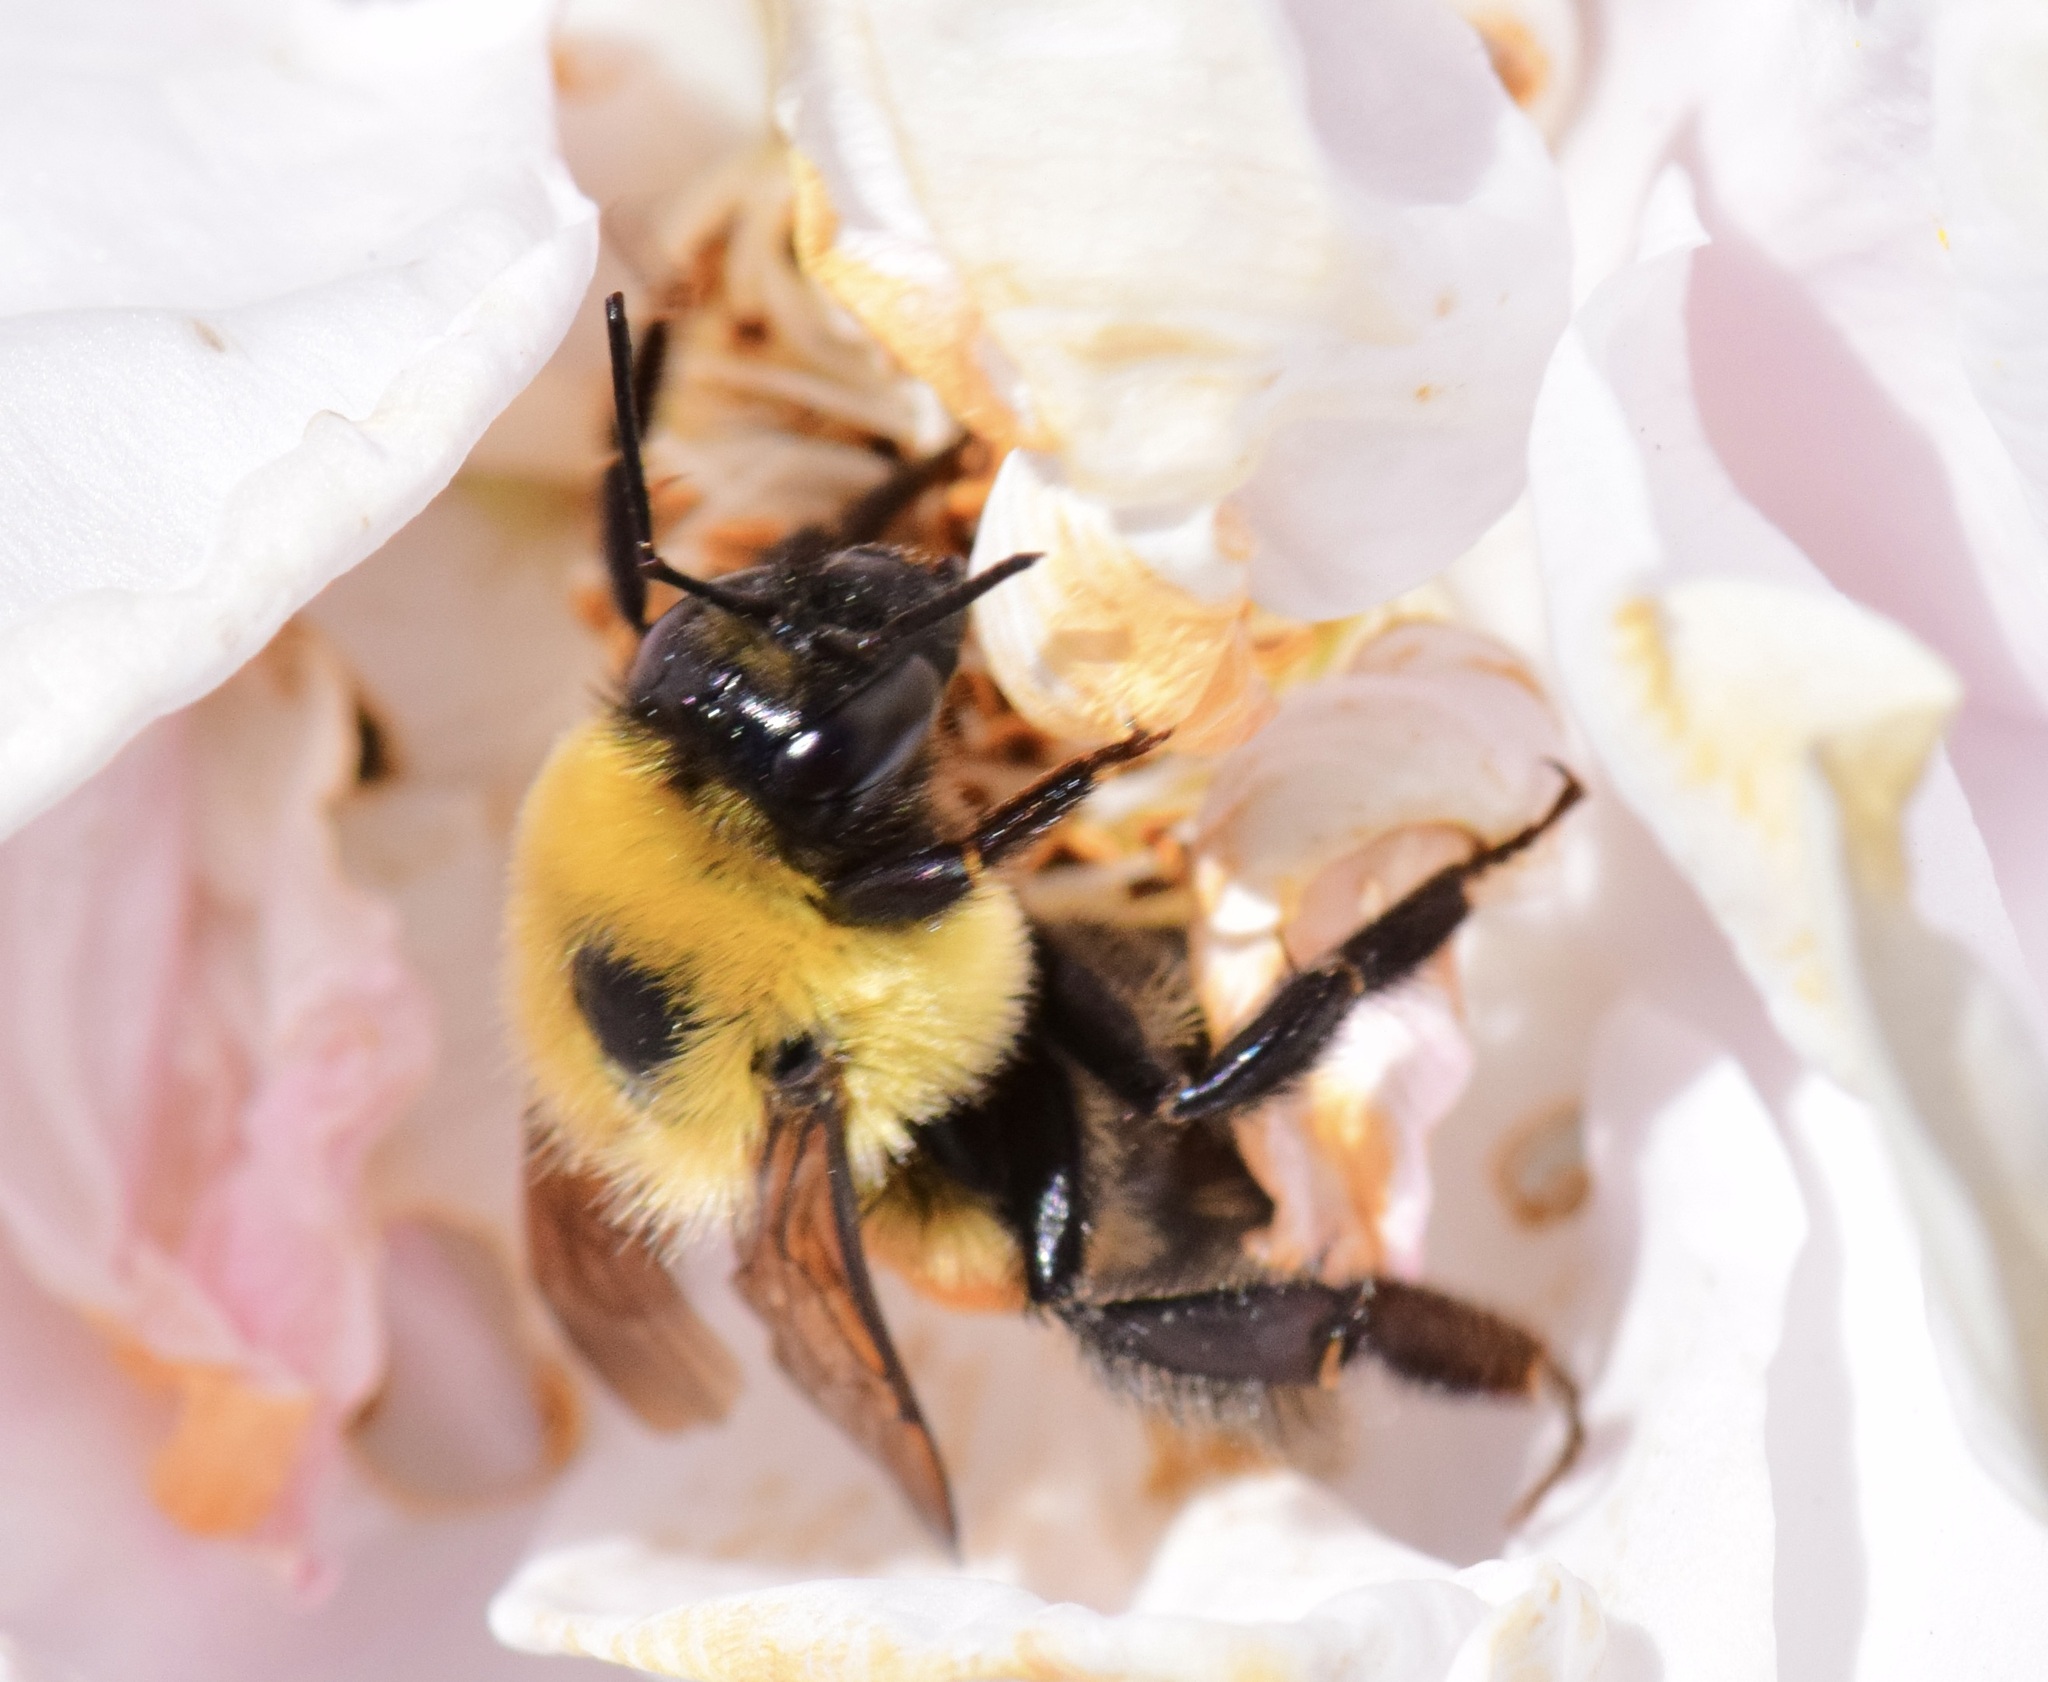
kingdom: Animalia
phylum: Arthropoda
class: Insecta
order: Hymenoptera
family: Apidae
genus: Bombus
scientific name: Bombus griseocollis
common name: Brown-belted bumble bee
